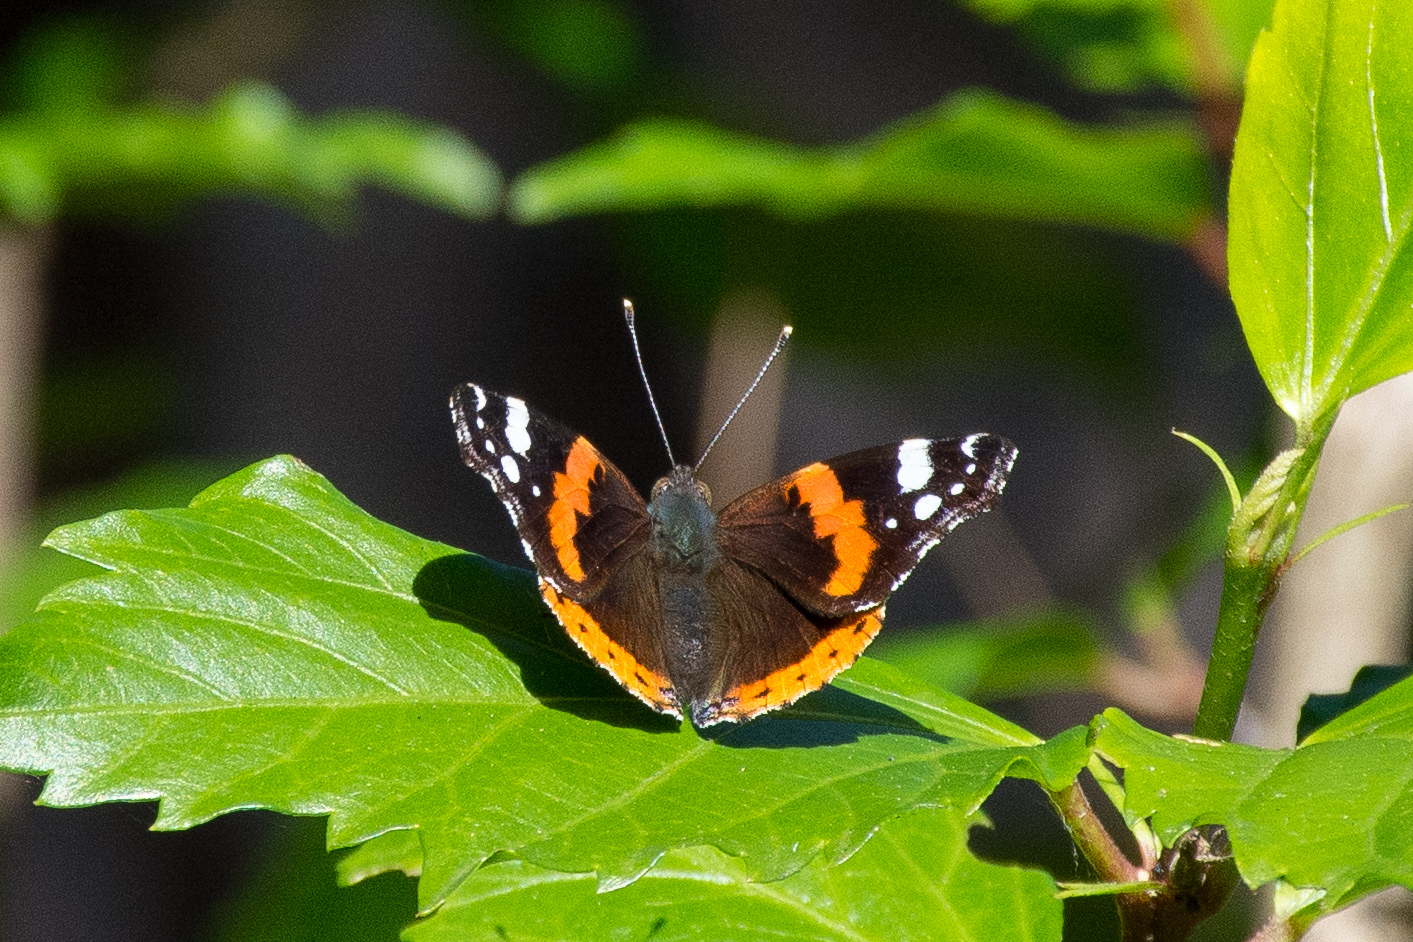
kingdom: Animalia
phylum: Arthropoda
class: Insecta
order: Lepidoptera
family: Nymphalidae
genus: Vanessa
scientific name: Vanessa atalanta
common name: Red admiral
